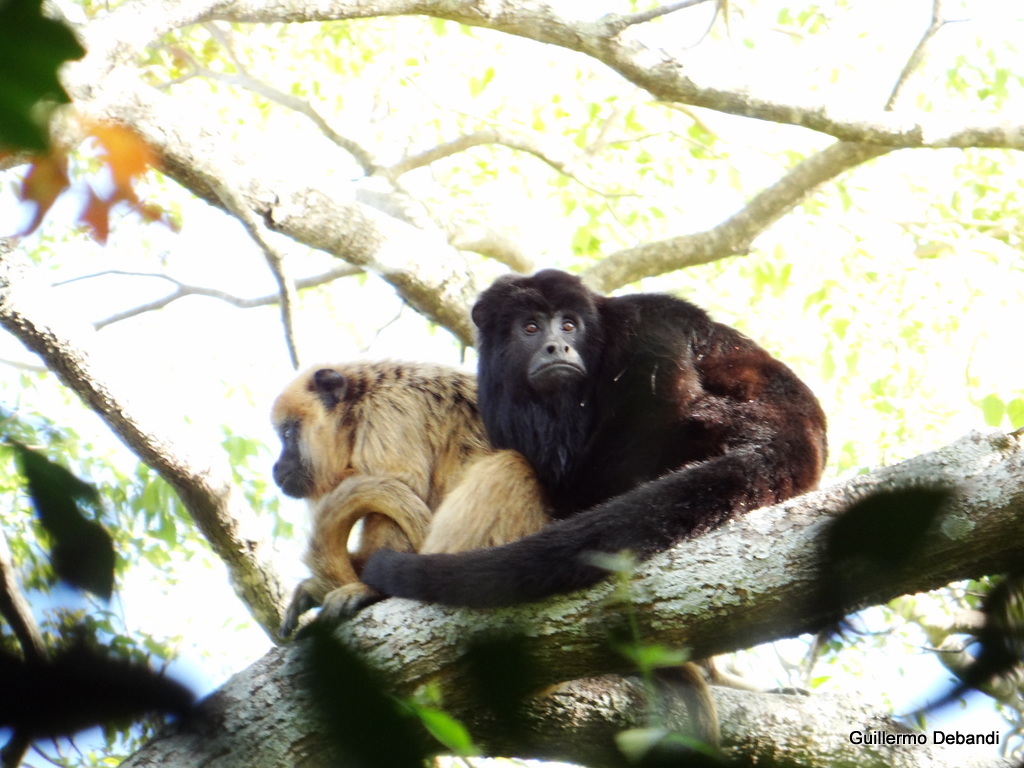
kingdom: Animalia
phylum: Chordata
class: Mammalia
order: Primates
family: Atelidae
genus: Alouatta
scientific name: Alouatta caraya
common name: Black howler
